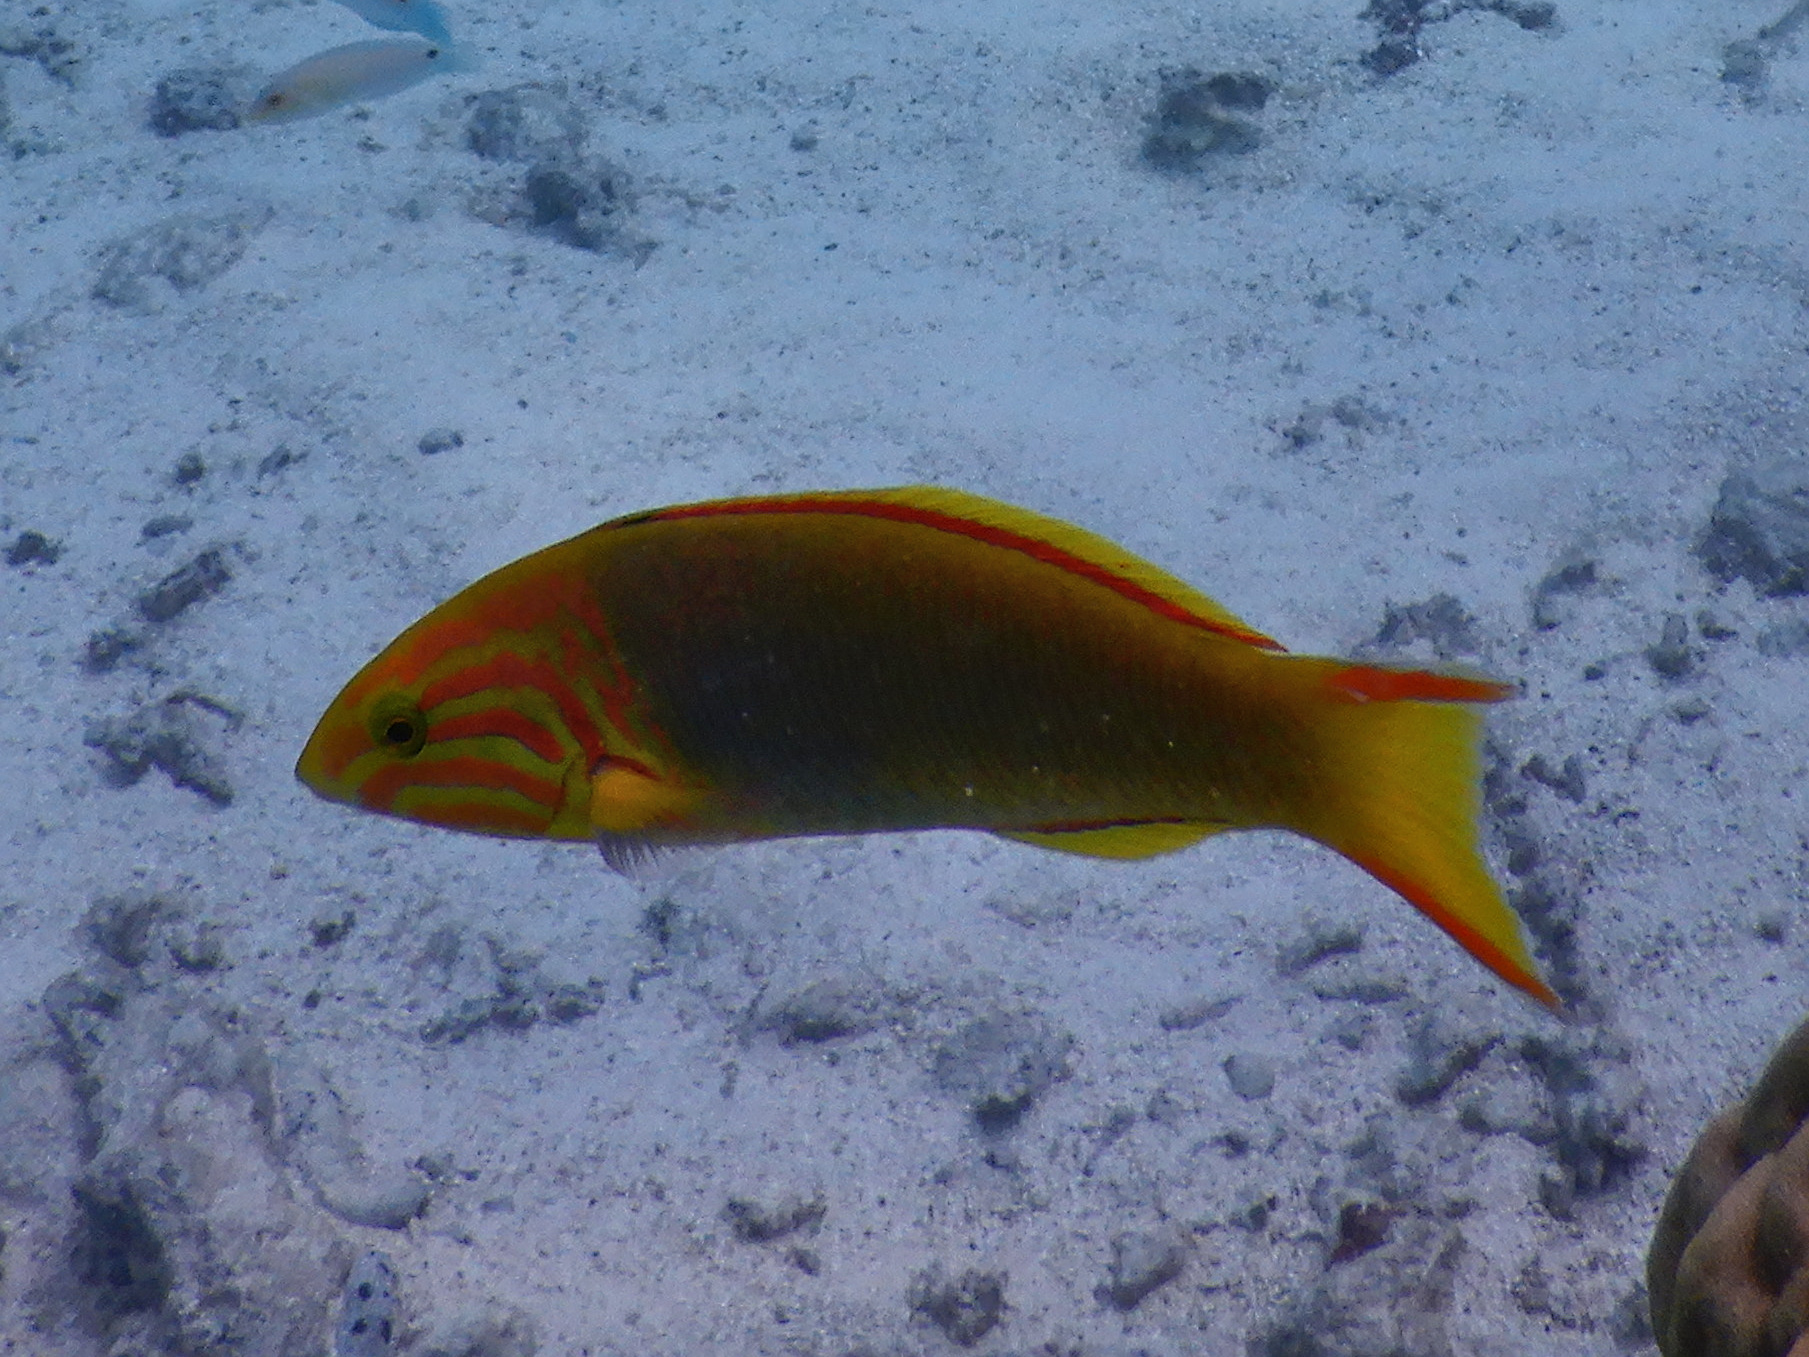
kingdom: Animalia
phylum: Chordata
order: Perciformes
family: Labridae
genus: Thalassoma
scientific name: Thalassoma lutescens
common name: Green moon wrasse
